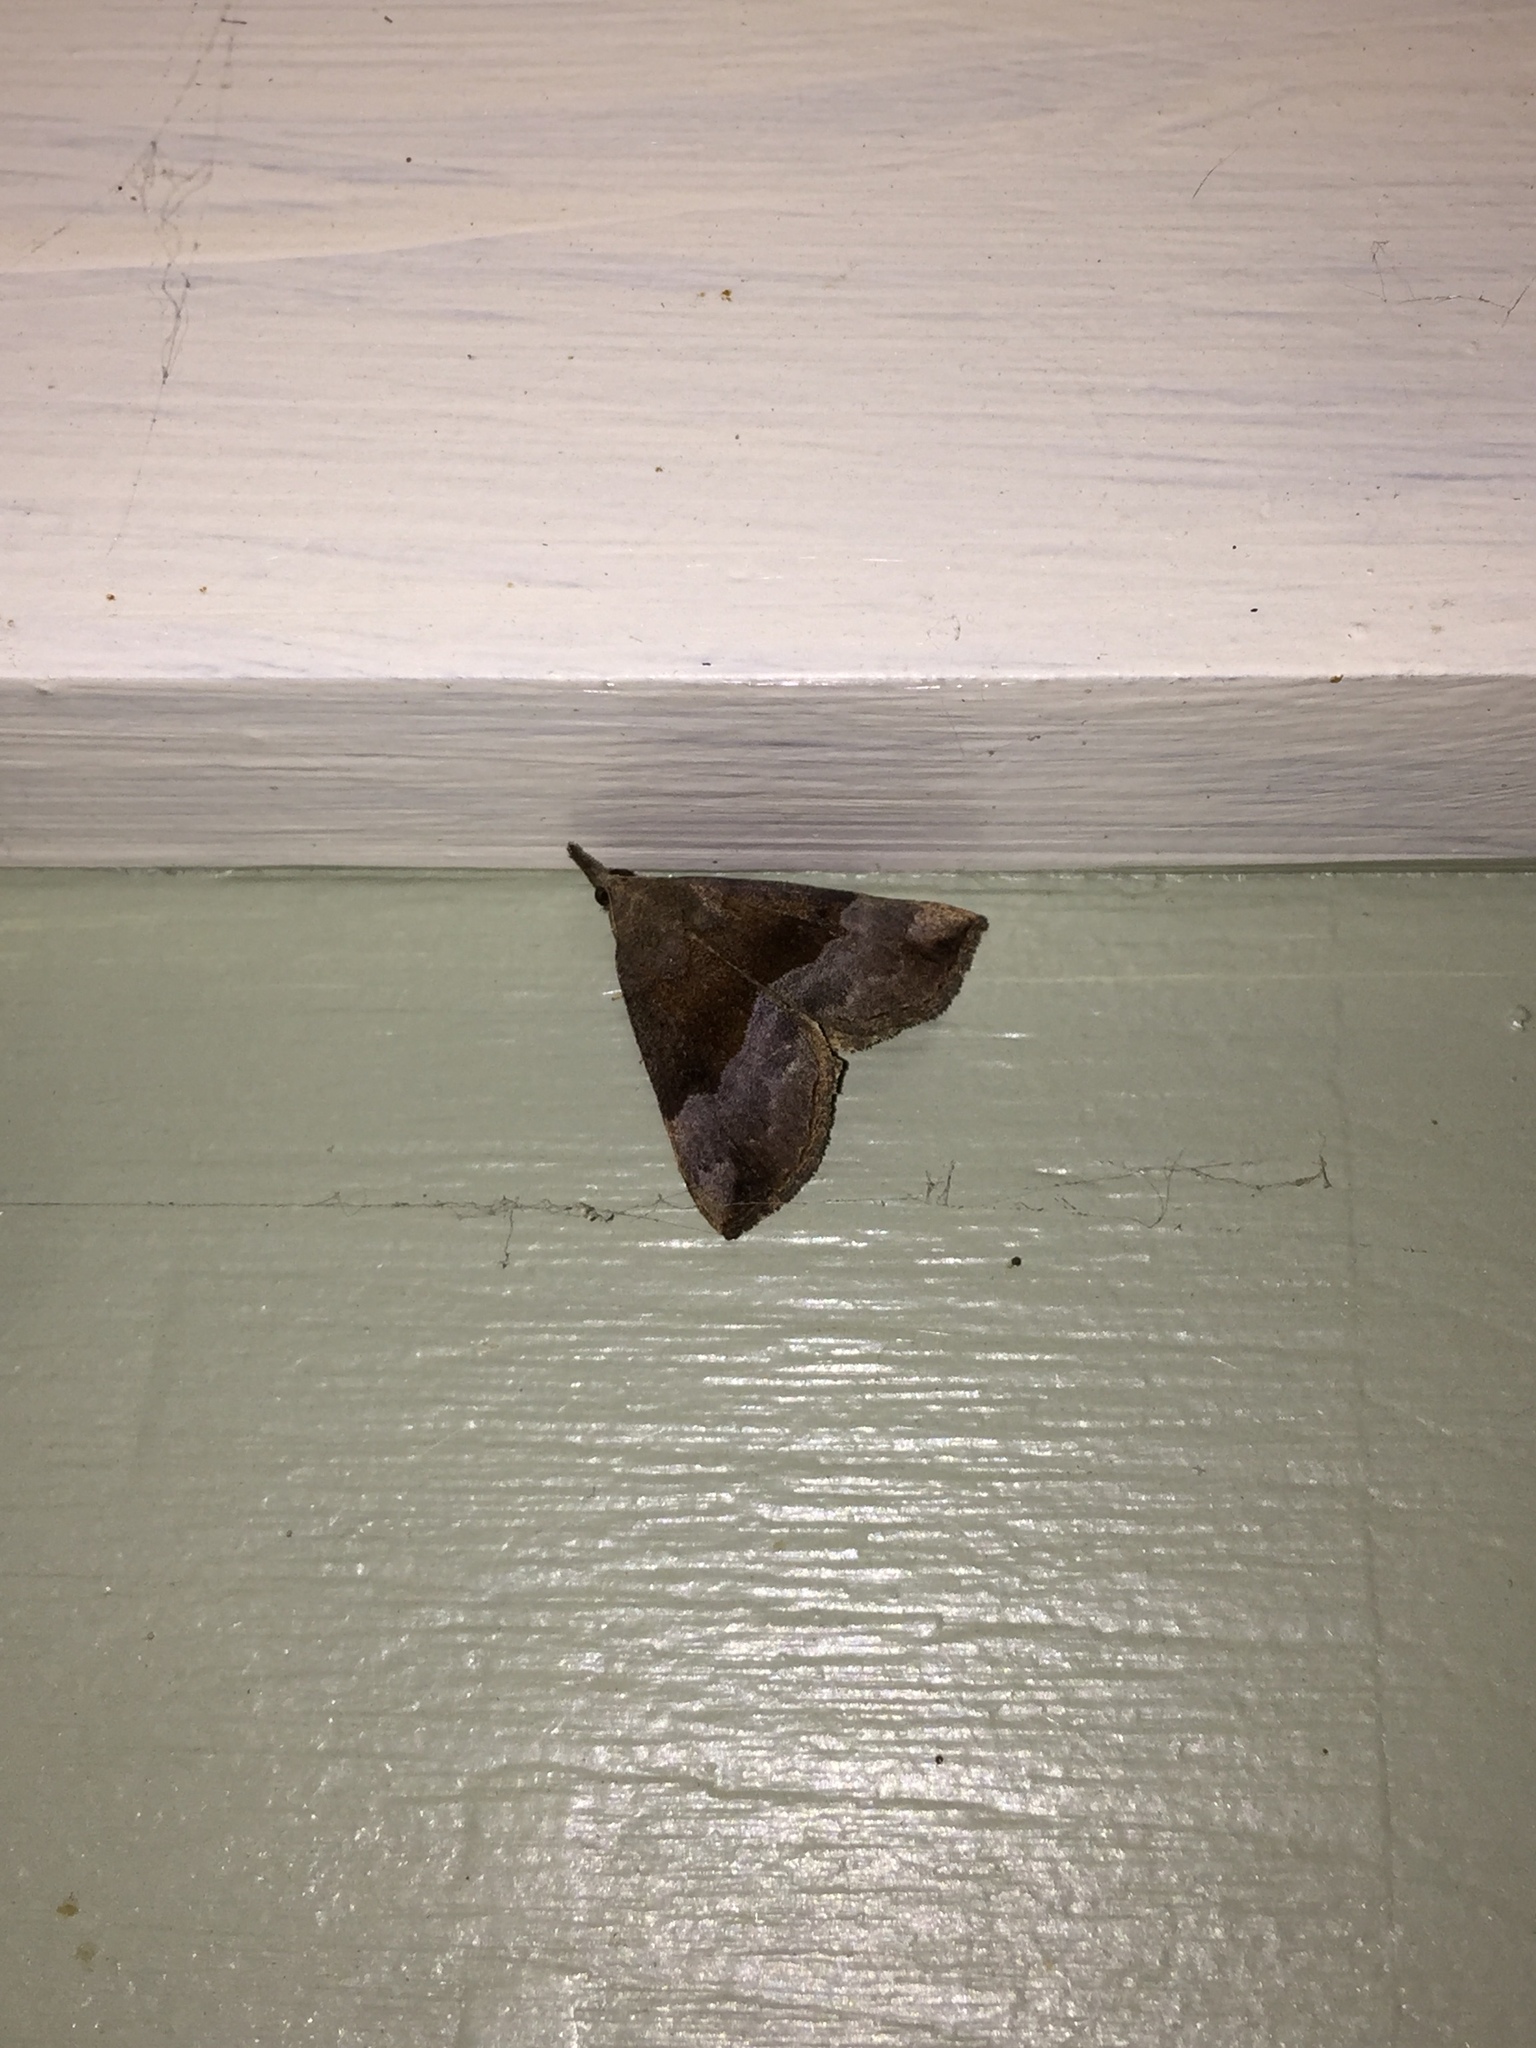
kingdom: Animalia
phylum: Arthropoda
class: Insecta
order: Lepidoptera
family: Erebidae
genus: Hypena
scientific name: Hypena madefactalis
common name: Gray-edged snout
